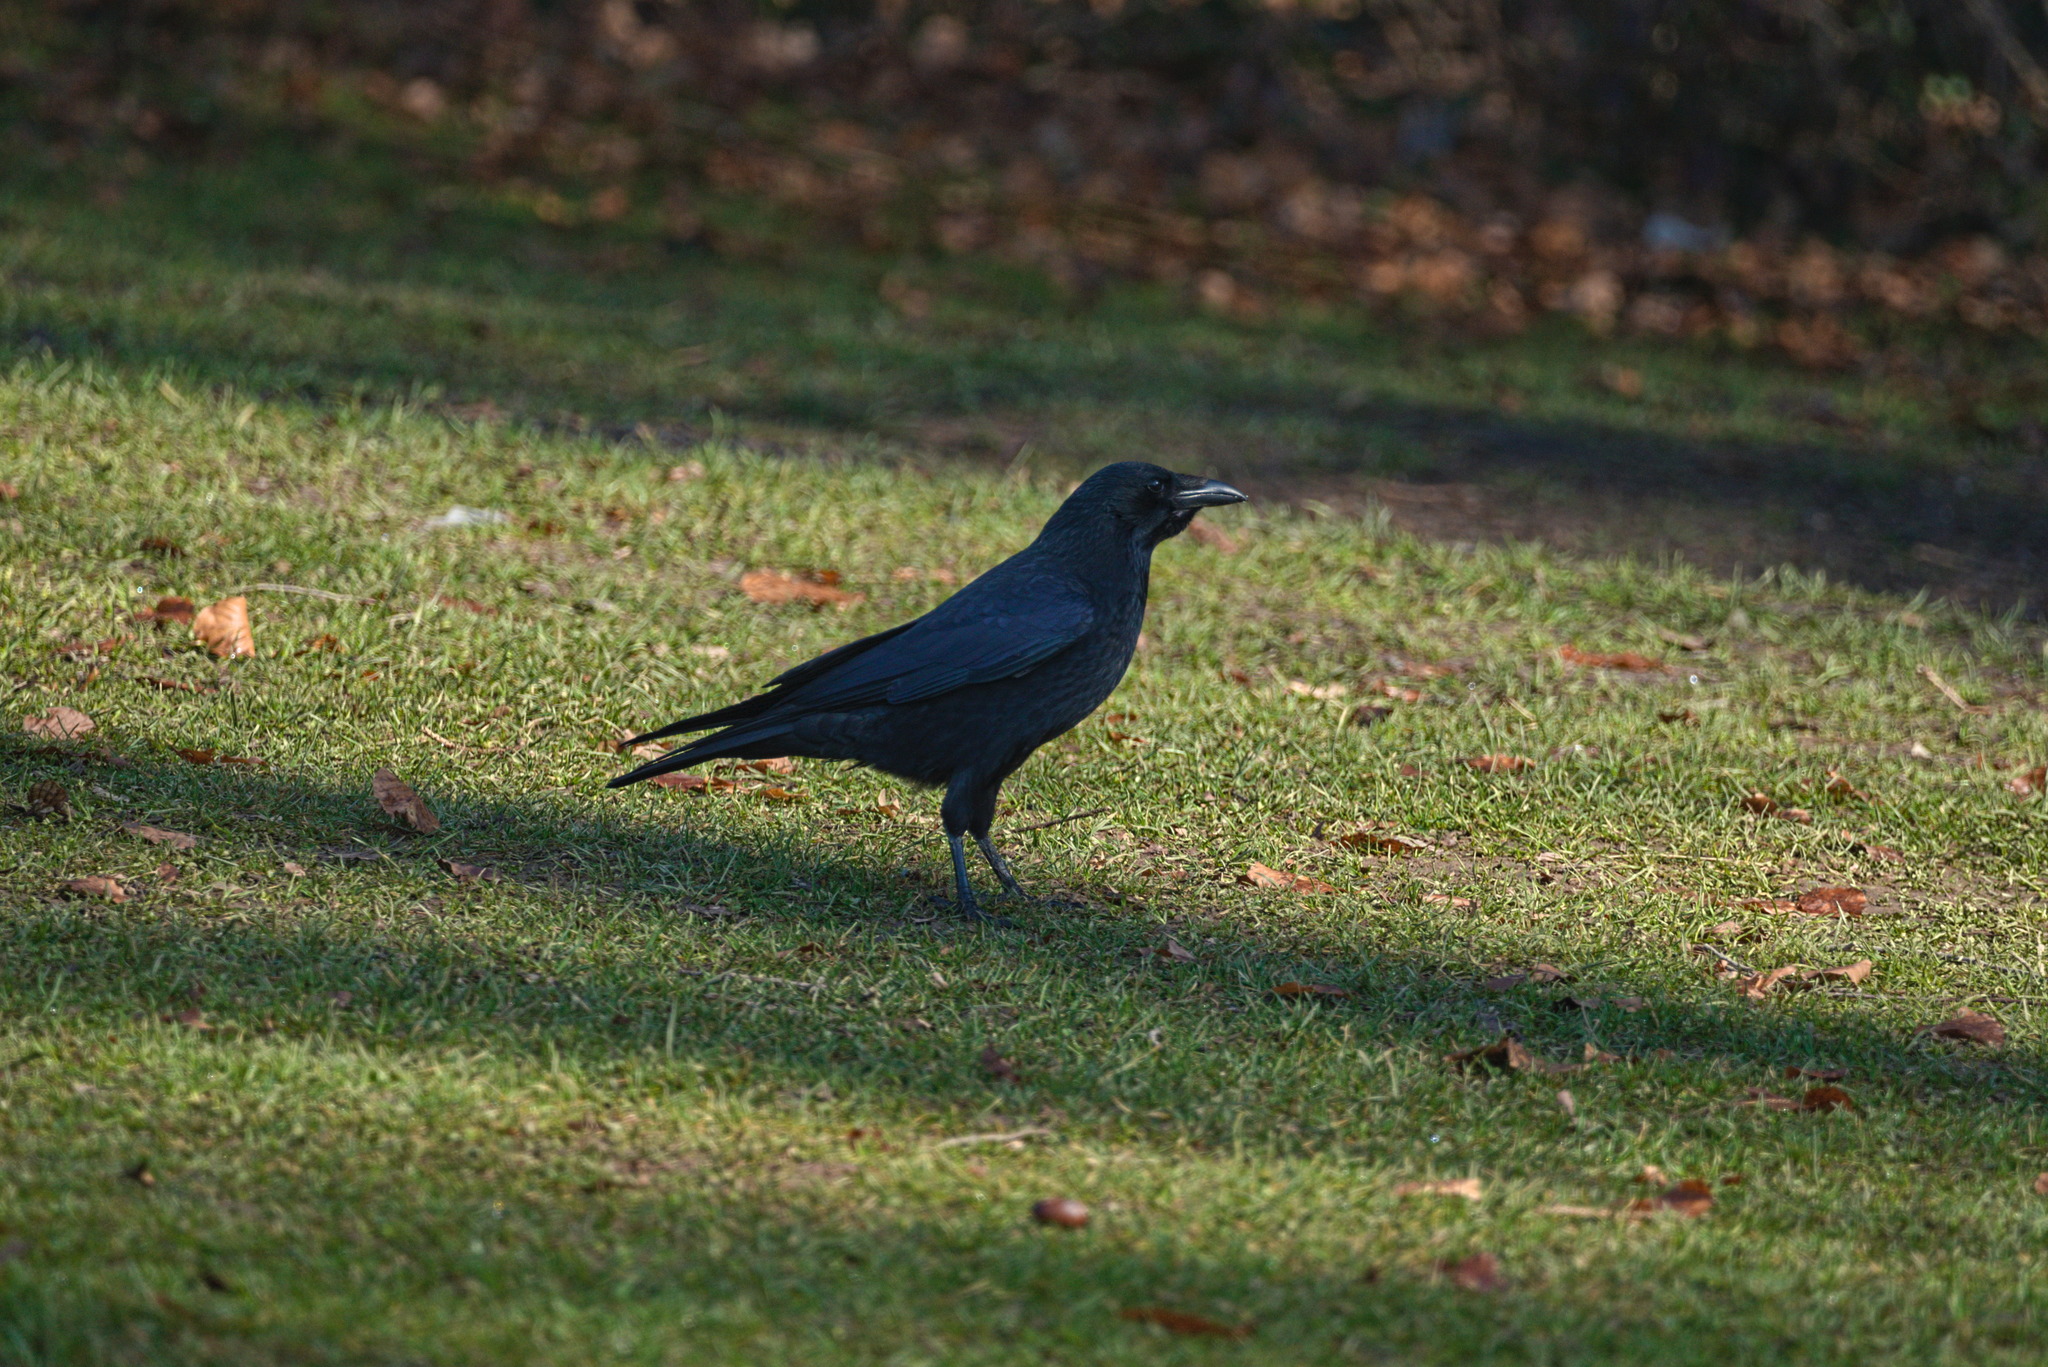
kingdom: Animalia
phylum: Chordata
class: Aves
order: Passeriformes
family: Corvidae
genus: Corvus
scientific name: Corvus corone
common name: Carrion crow
